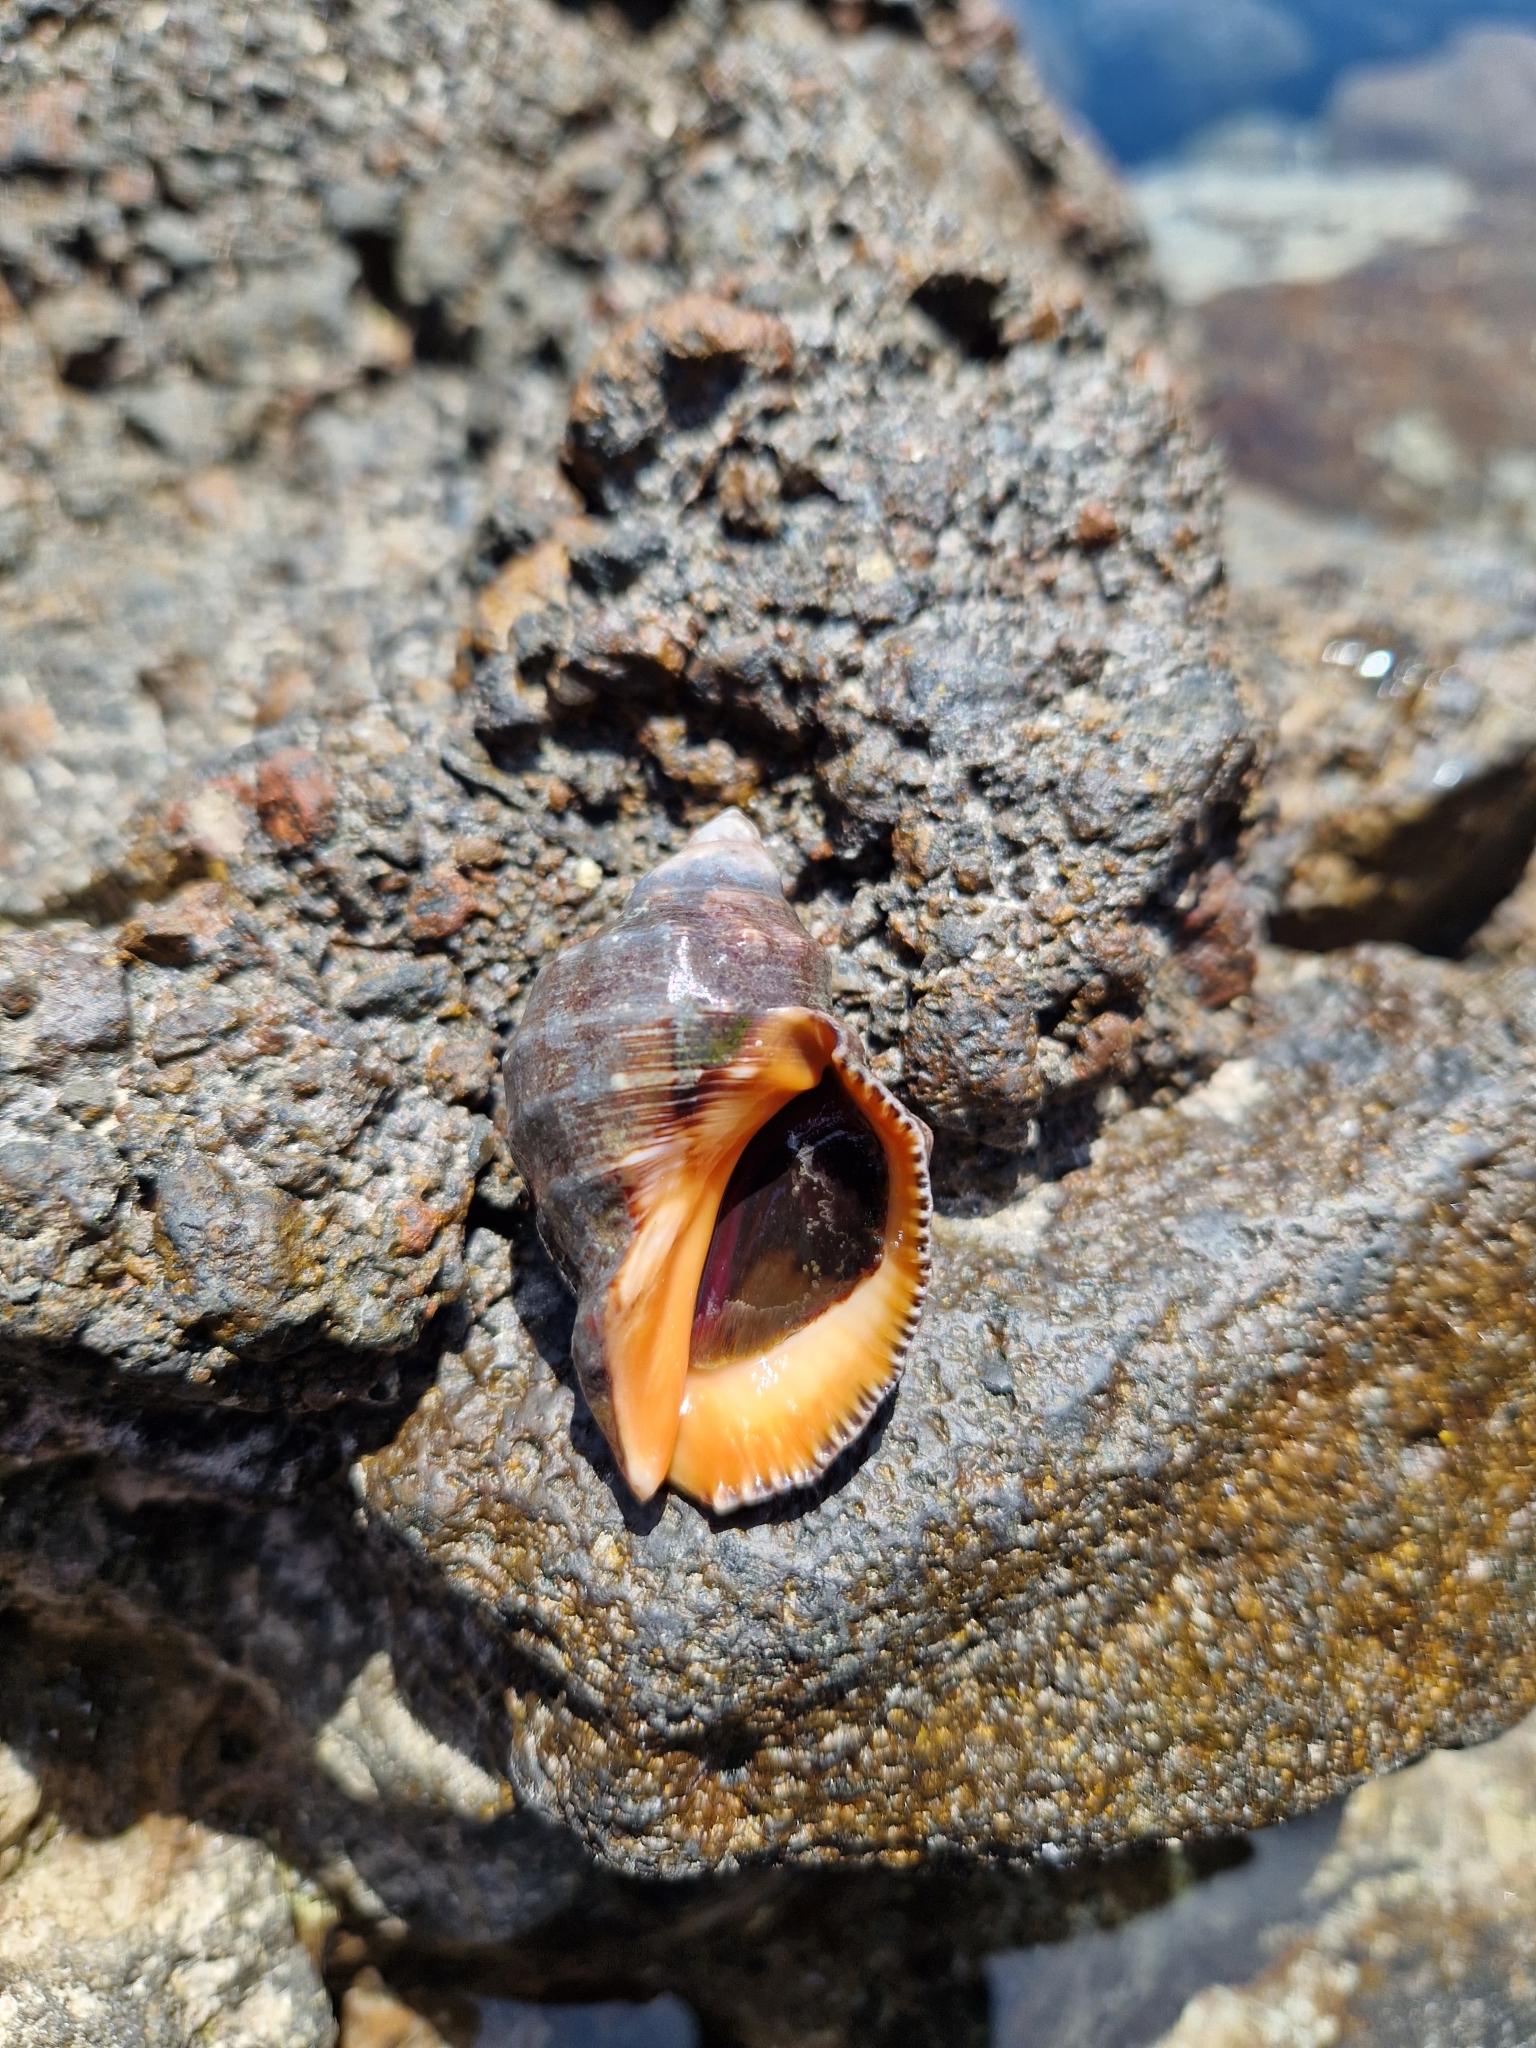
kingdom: Animalia
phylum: Mollusca
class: Gastropoda
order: Neogastropoda
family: Muricidae
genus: Stramonita
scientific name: Stramonita haemastoma
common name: Florida dog winkle
